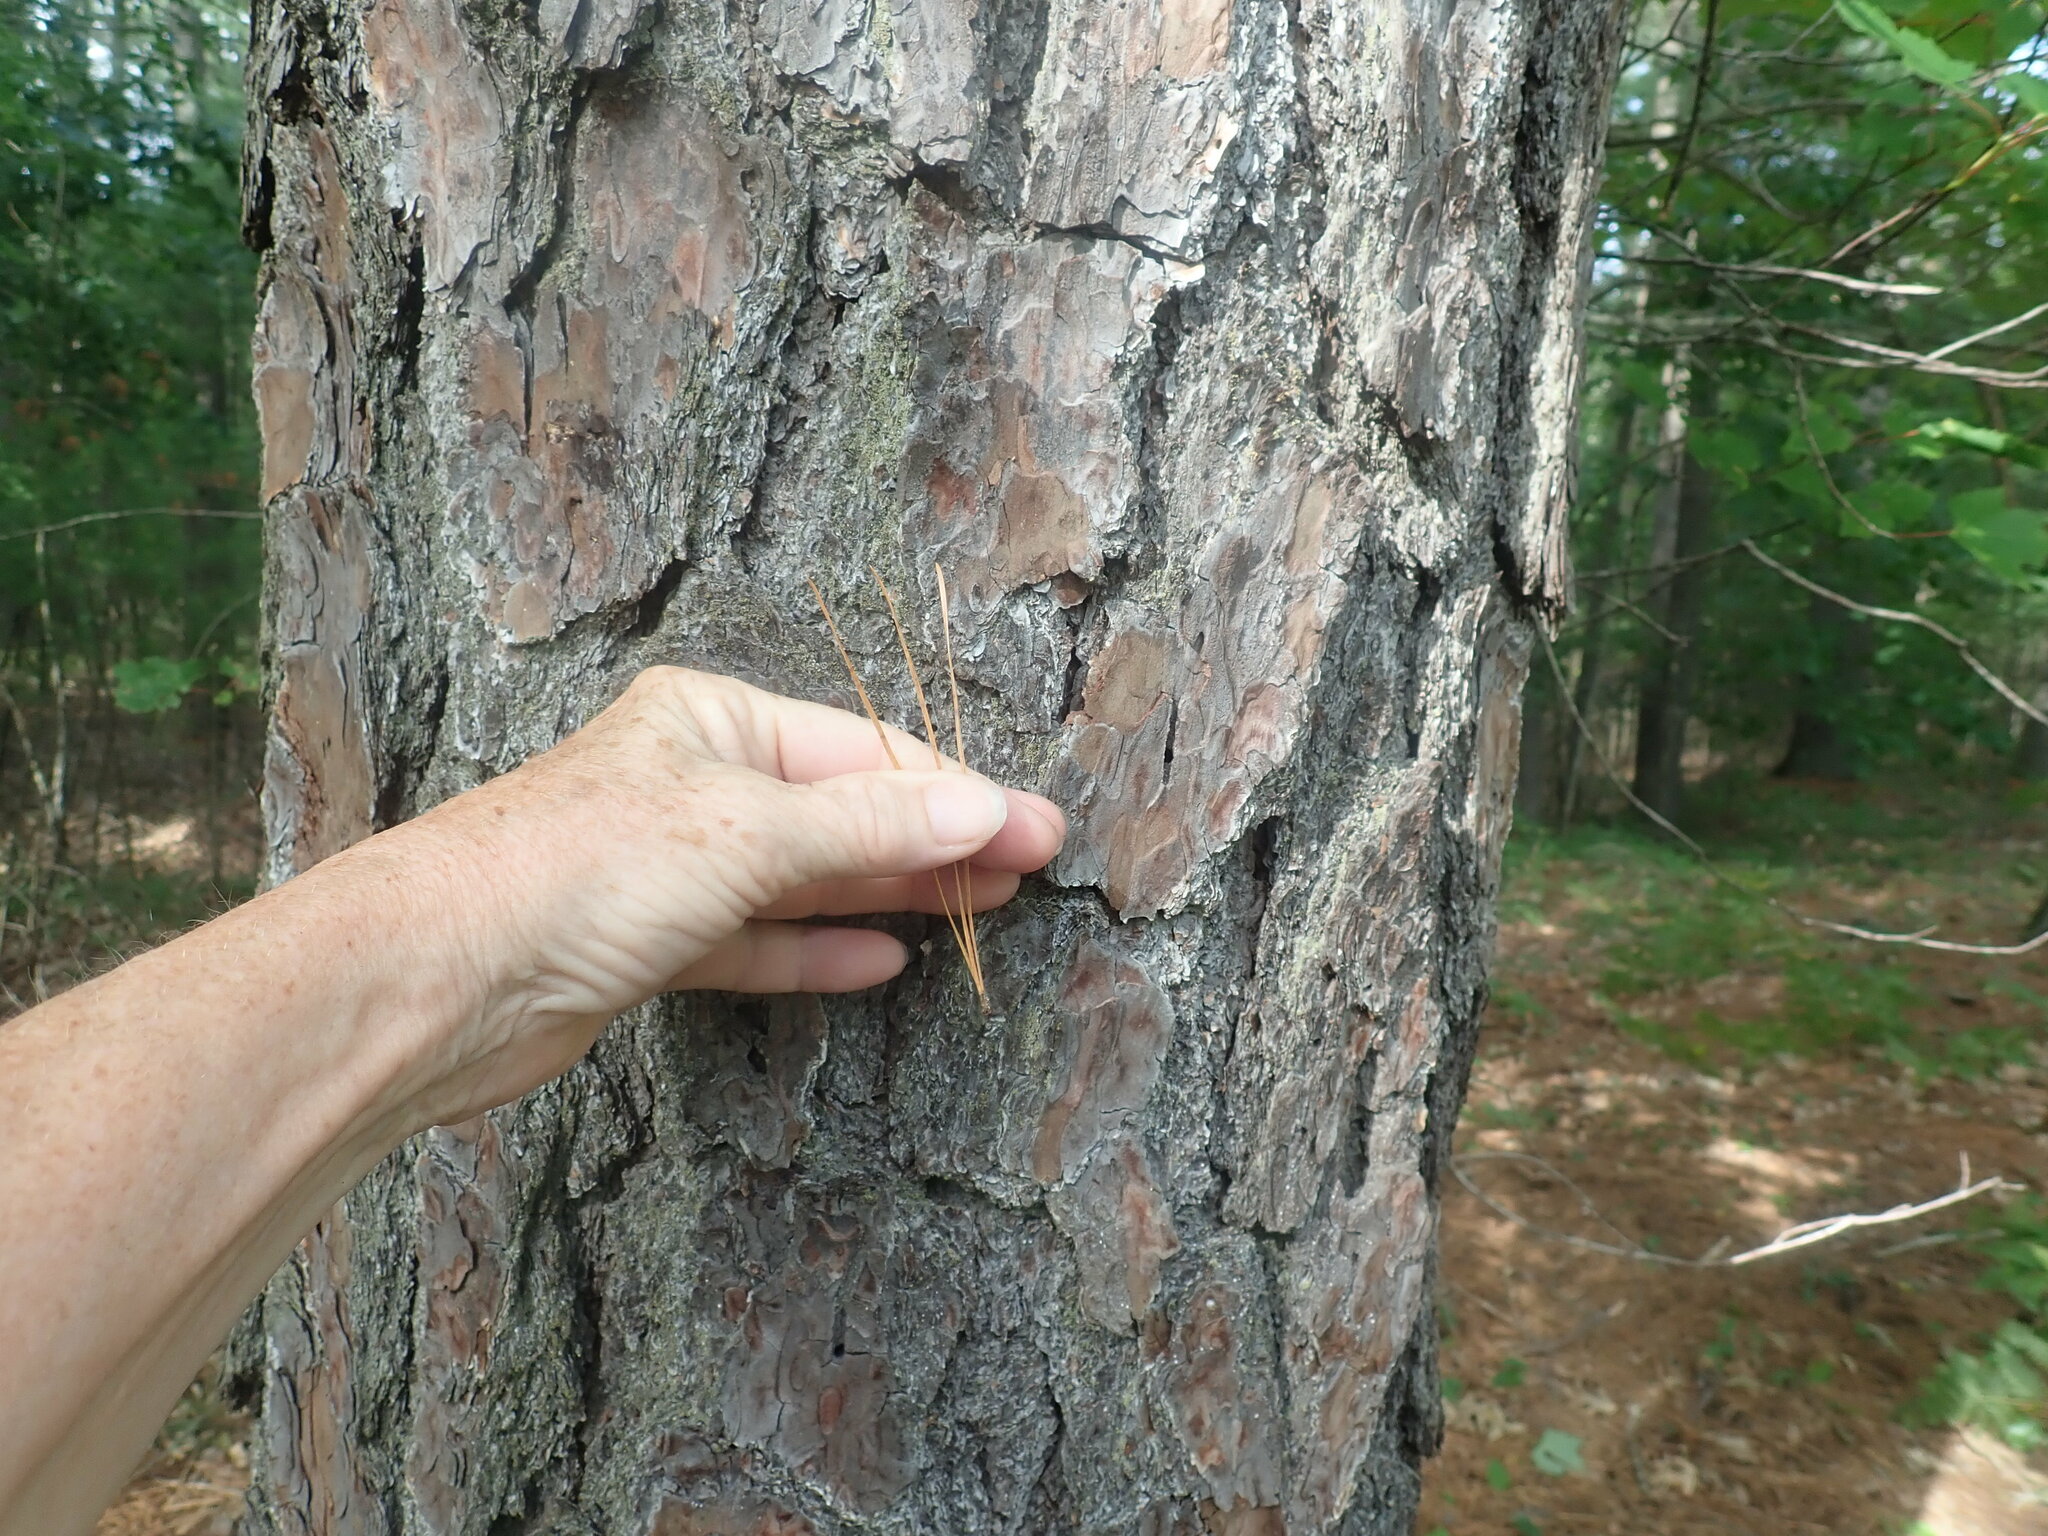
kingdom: Plantae
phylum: Tracheophyta
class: Pinopsida
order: Pinales
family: Pinaceae
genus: Pinus
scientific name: Pinus rigida
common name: Pitch pine
